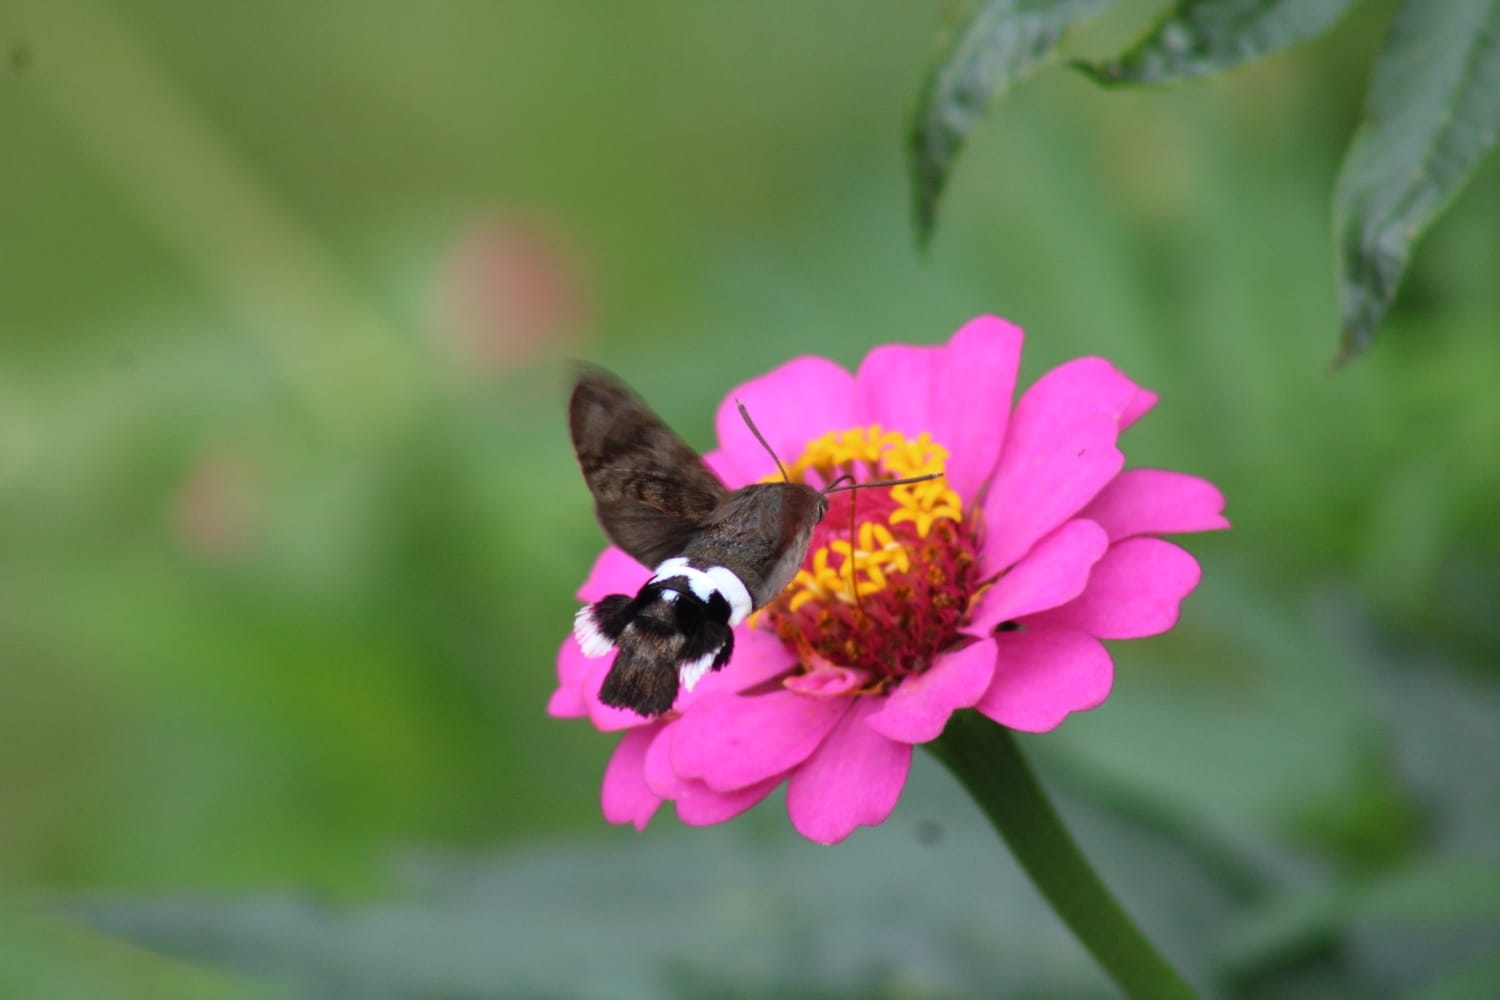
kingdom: Animalia
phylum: Arthropoda
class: Insecta
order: Lepidoptera
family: Sphingidae
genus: Leucostrophus
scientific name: Leucostrophus alterhirundo
